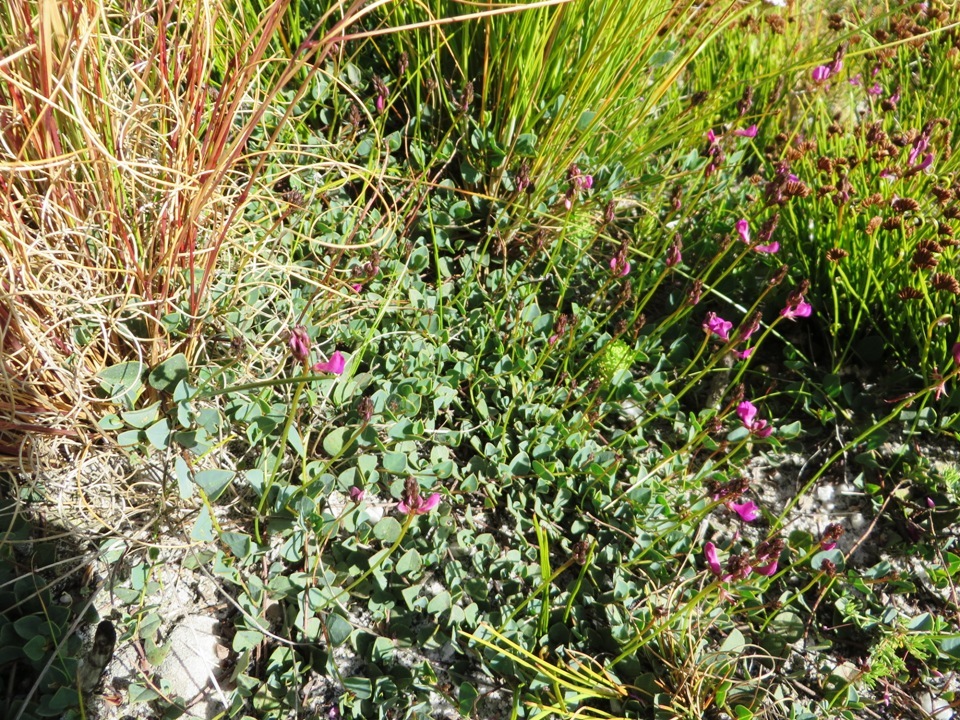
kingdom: Plantae
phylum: Tracheophyta
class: Magnoliopsida
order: Fabales
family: Fabaceae
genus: Indigofera
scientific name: Indigofera ovata
